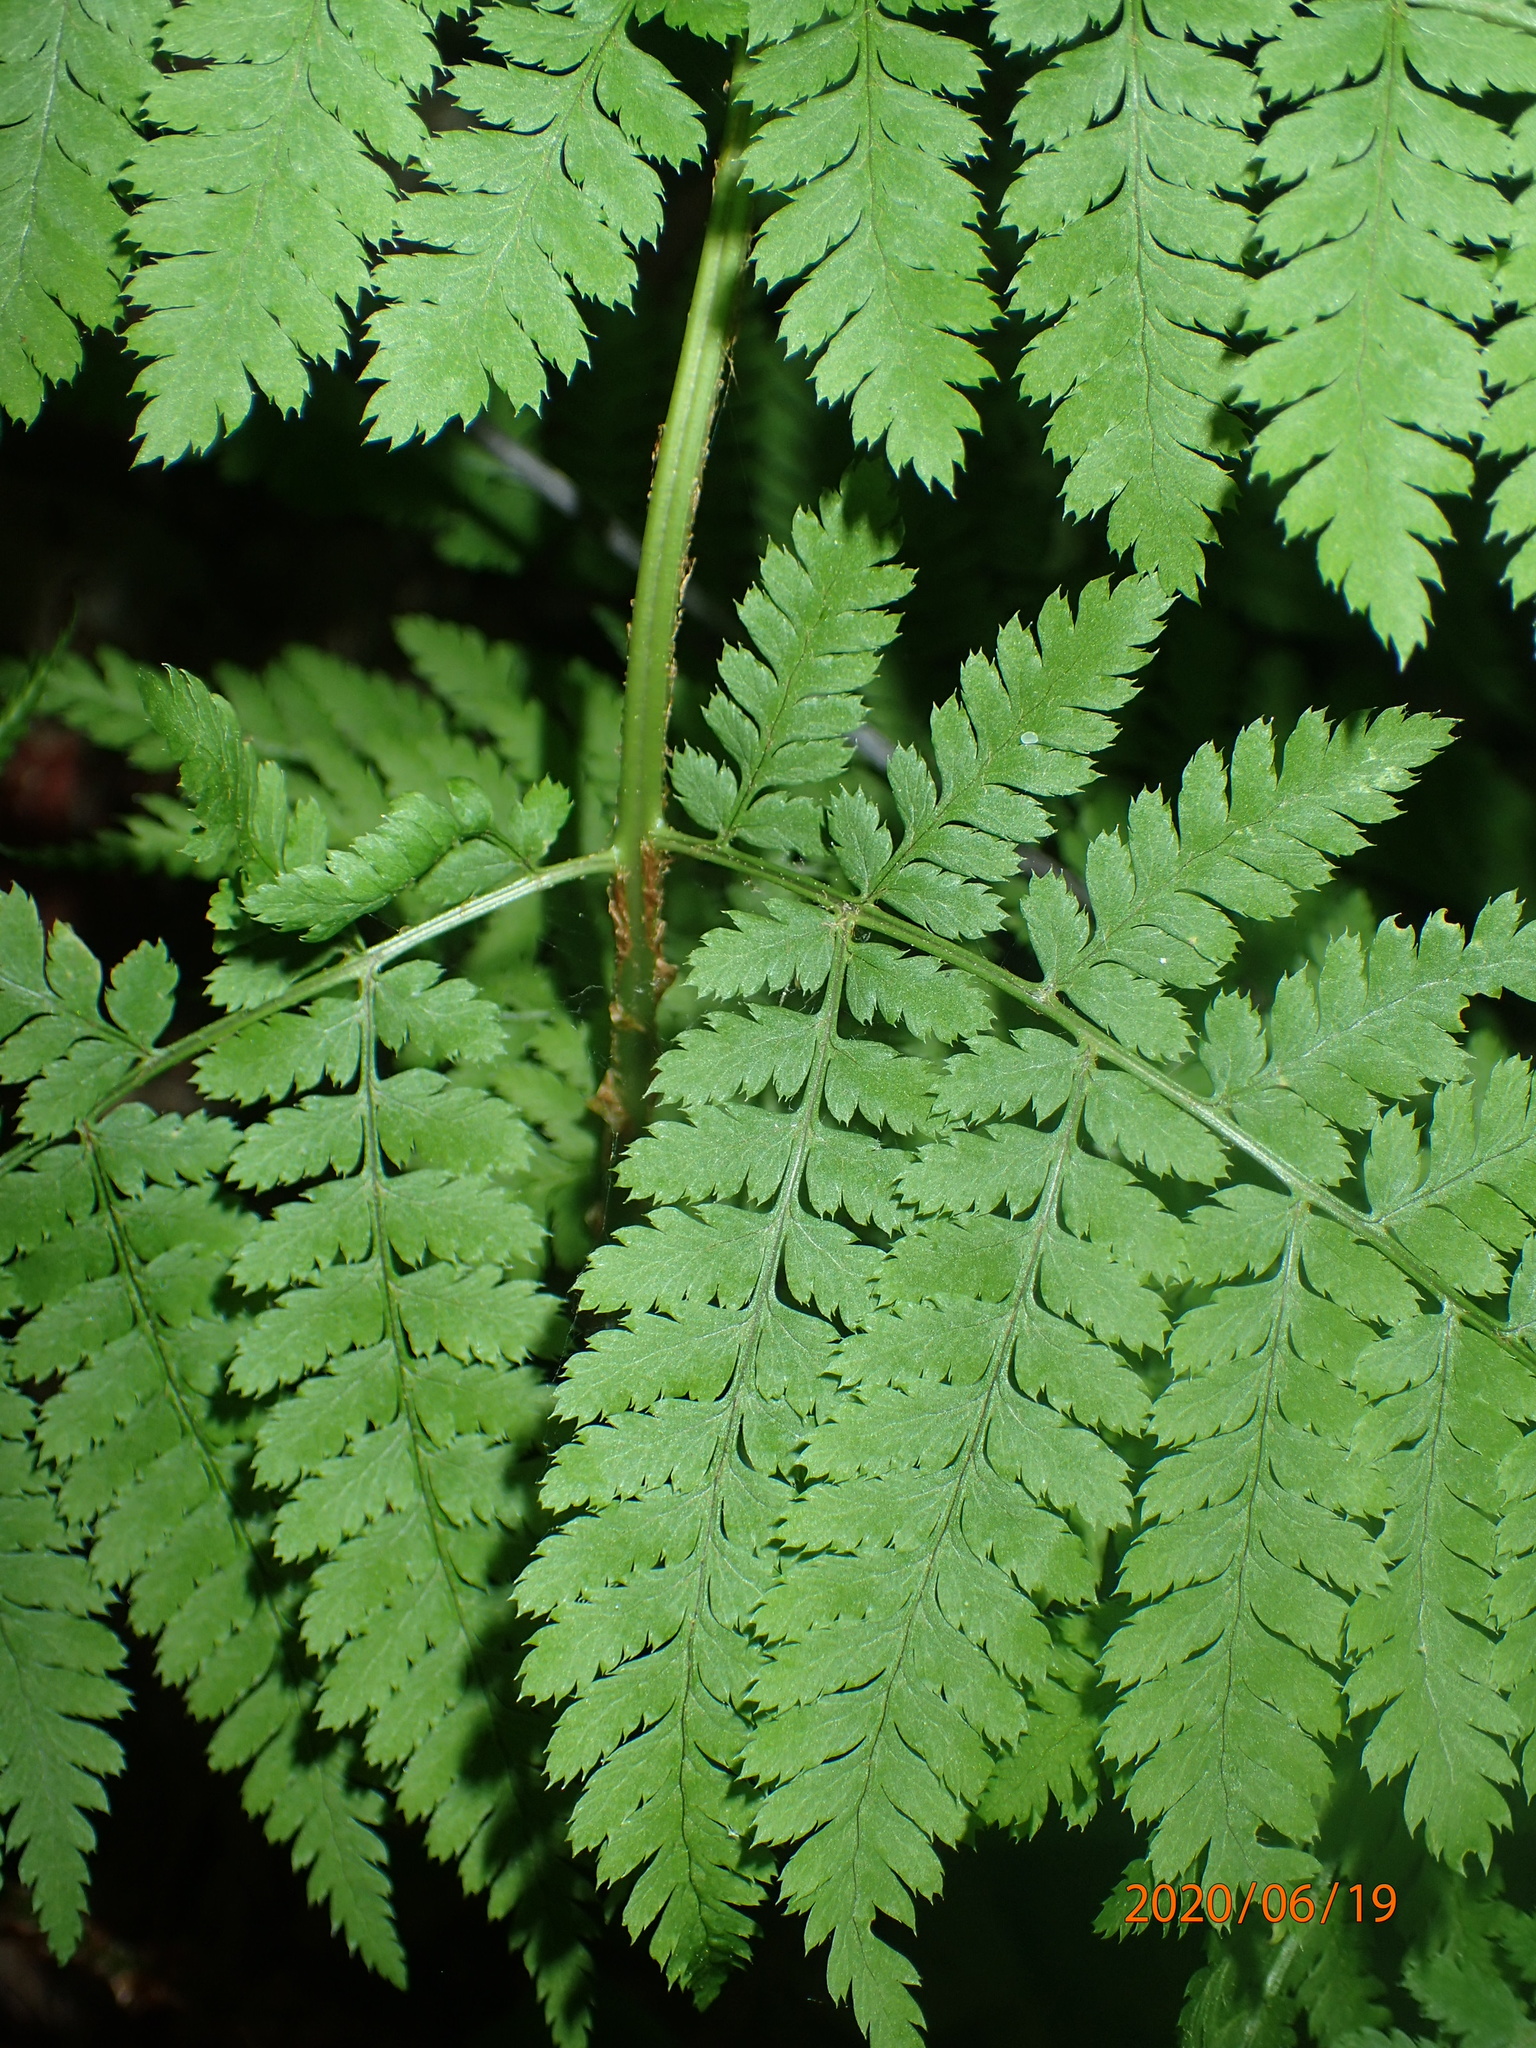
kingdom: Plantae
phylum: Tracheophyta
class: Polypodiopsida
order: Polypodiales
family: Dryopteridaceae
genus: Dryopteris
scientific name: Dryopteris campyloptera
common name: Mountain wood fern
